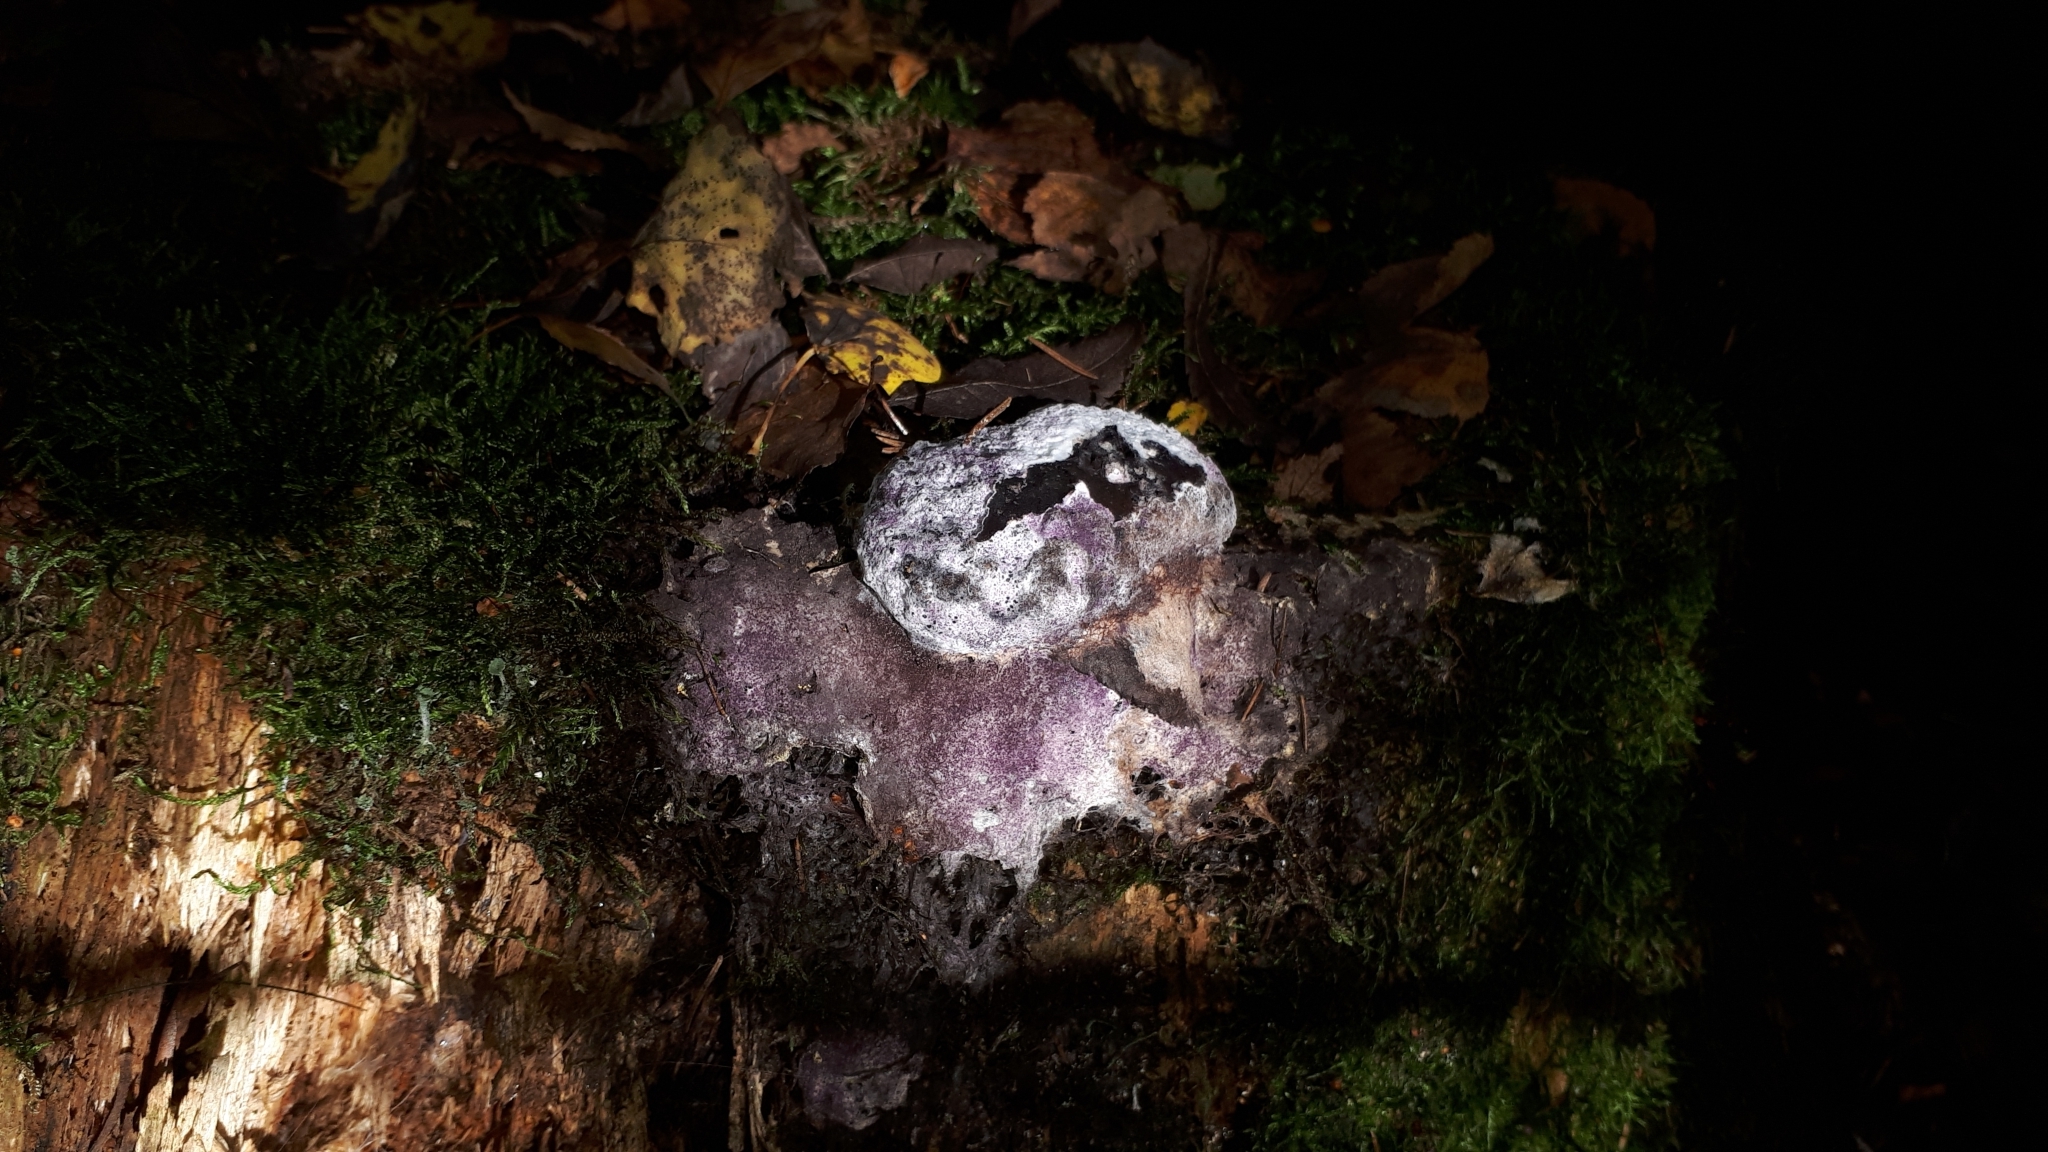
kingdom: Fungi
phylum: Ascomycota
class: Sordariomycetes
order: Hypocreales
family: Bionectriaceae
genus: Nectriopsis
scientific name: Nectriopsis violacea
